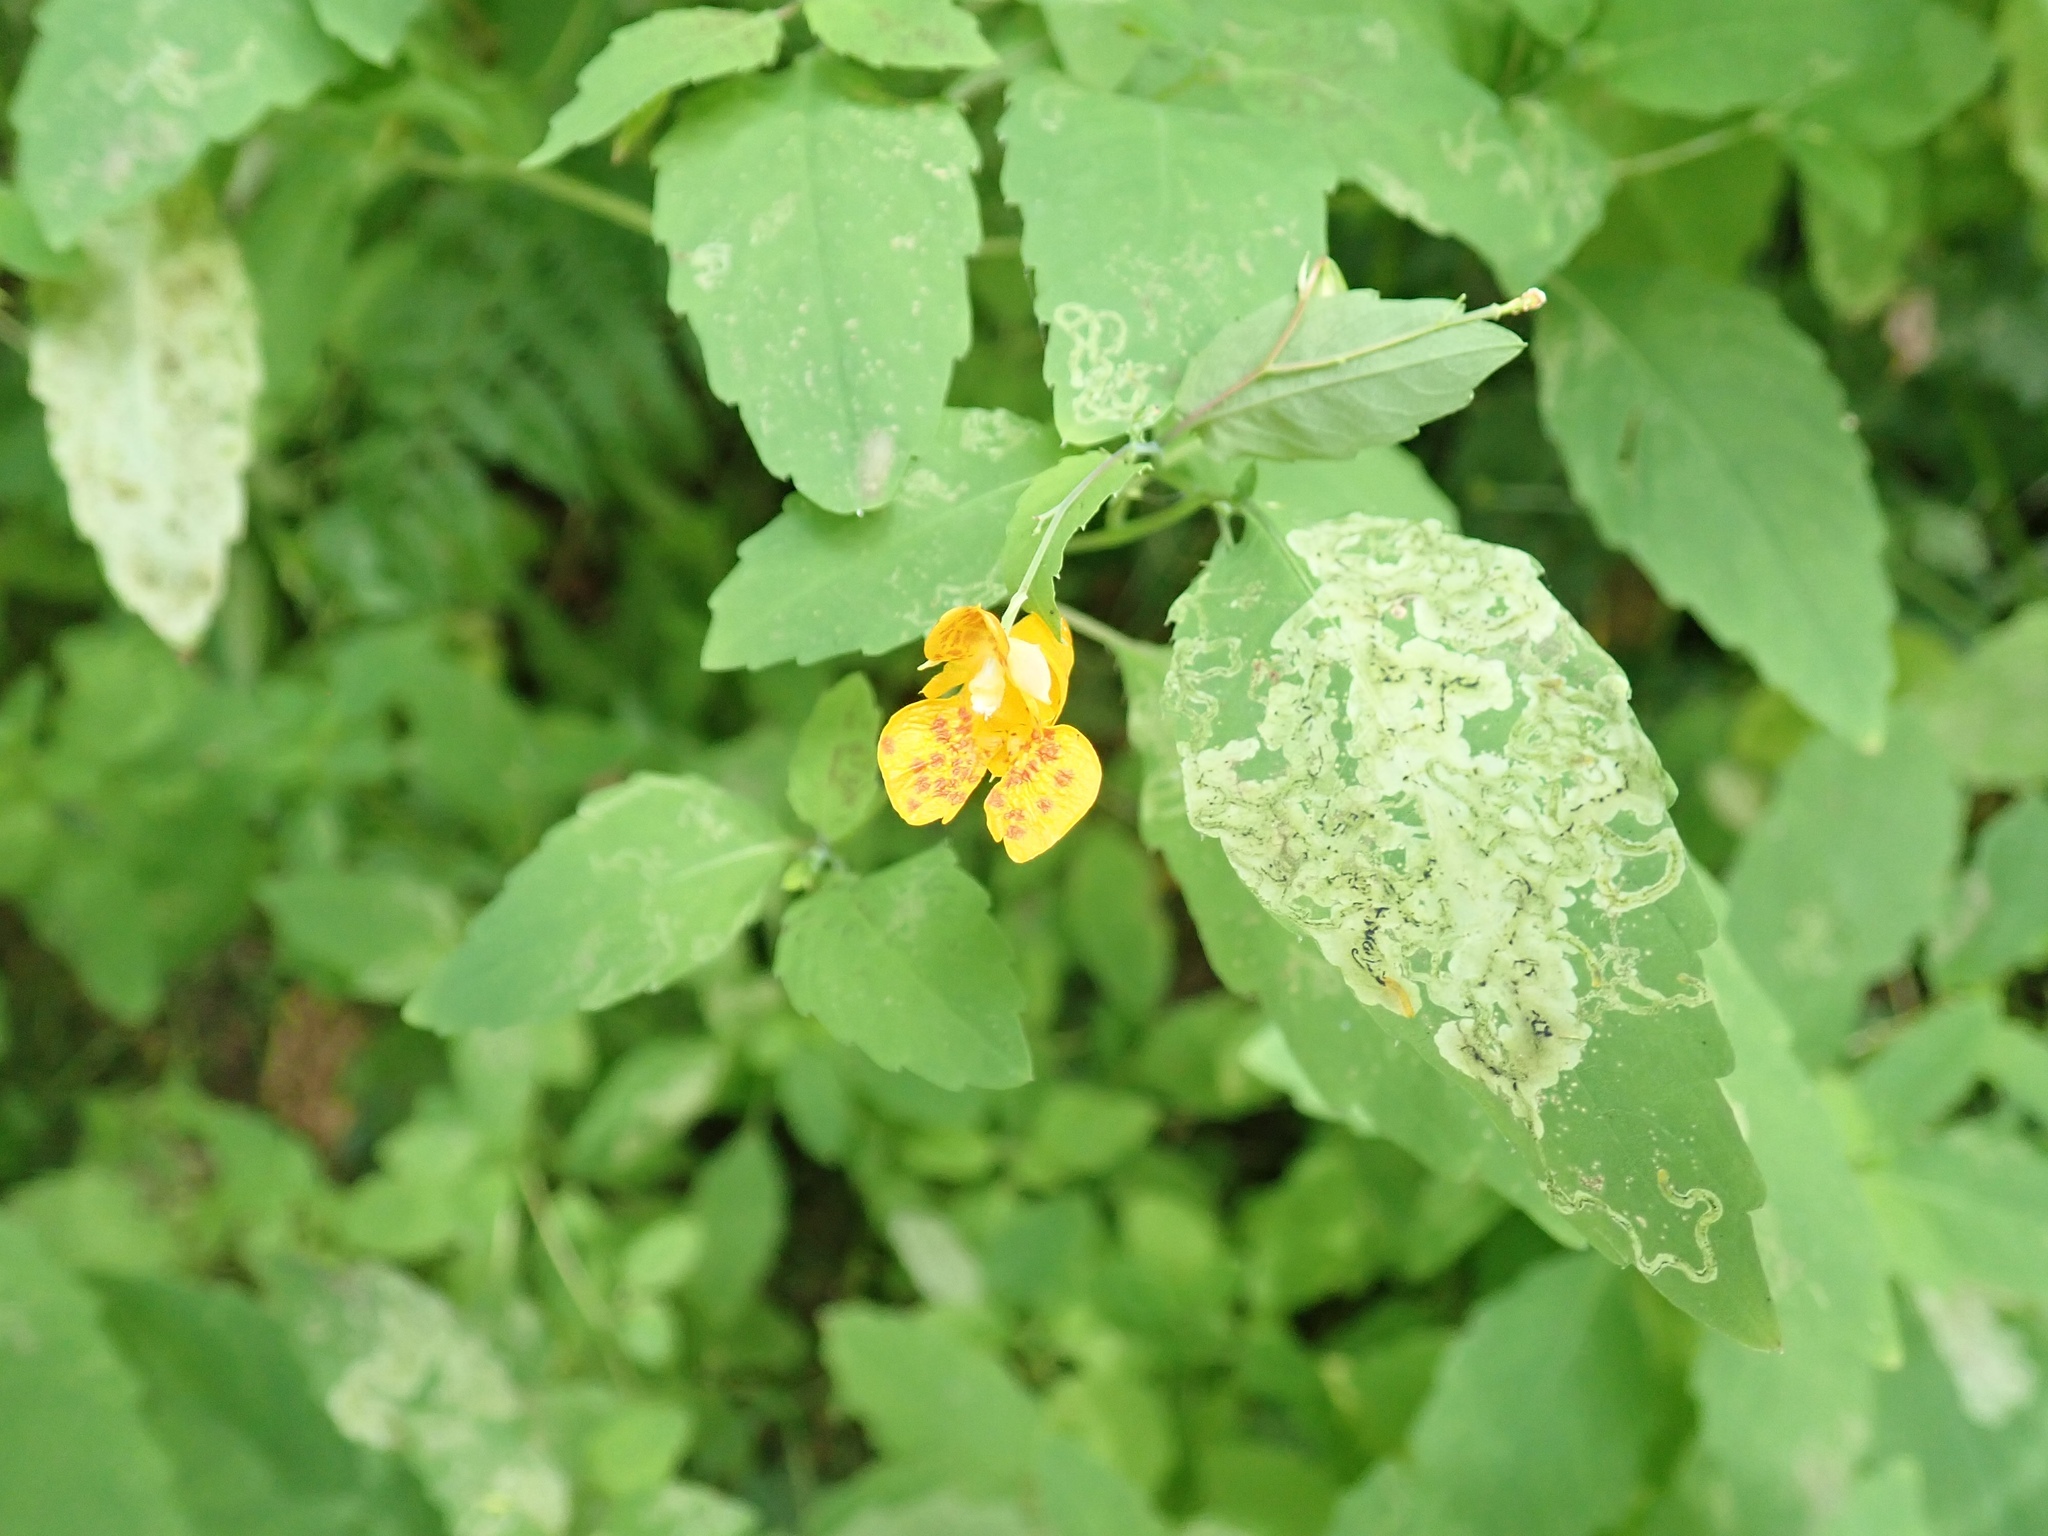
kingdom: Plantae
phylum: Tracheophyta
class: Magnoliopsida
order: Ericales
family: Balsaminaceae
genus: Impatiens
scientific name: Impatiens capensis
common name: Orange balsam
